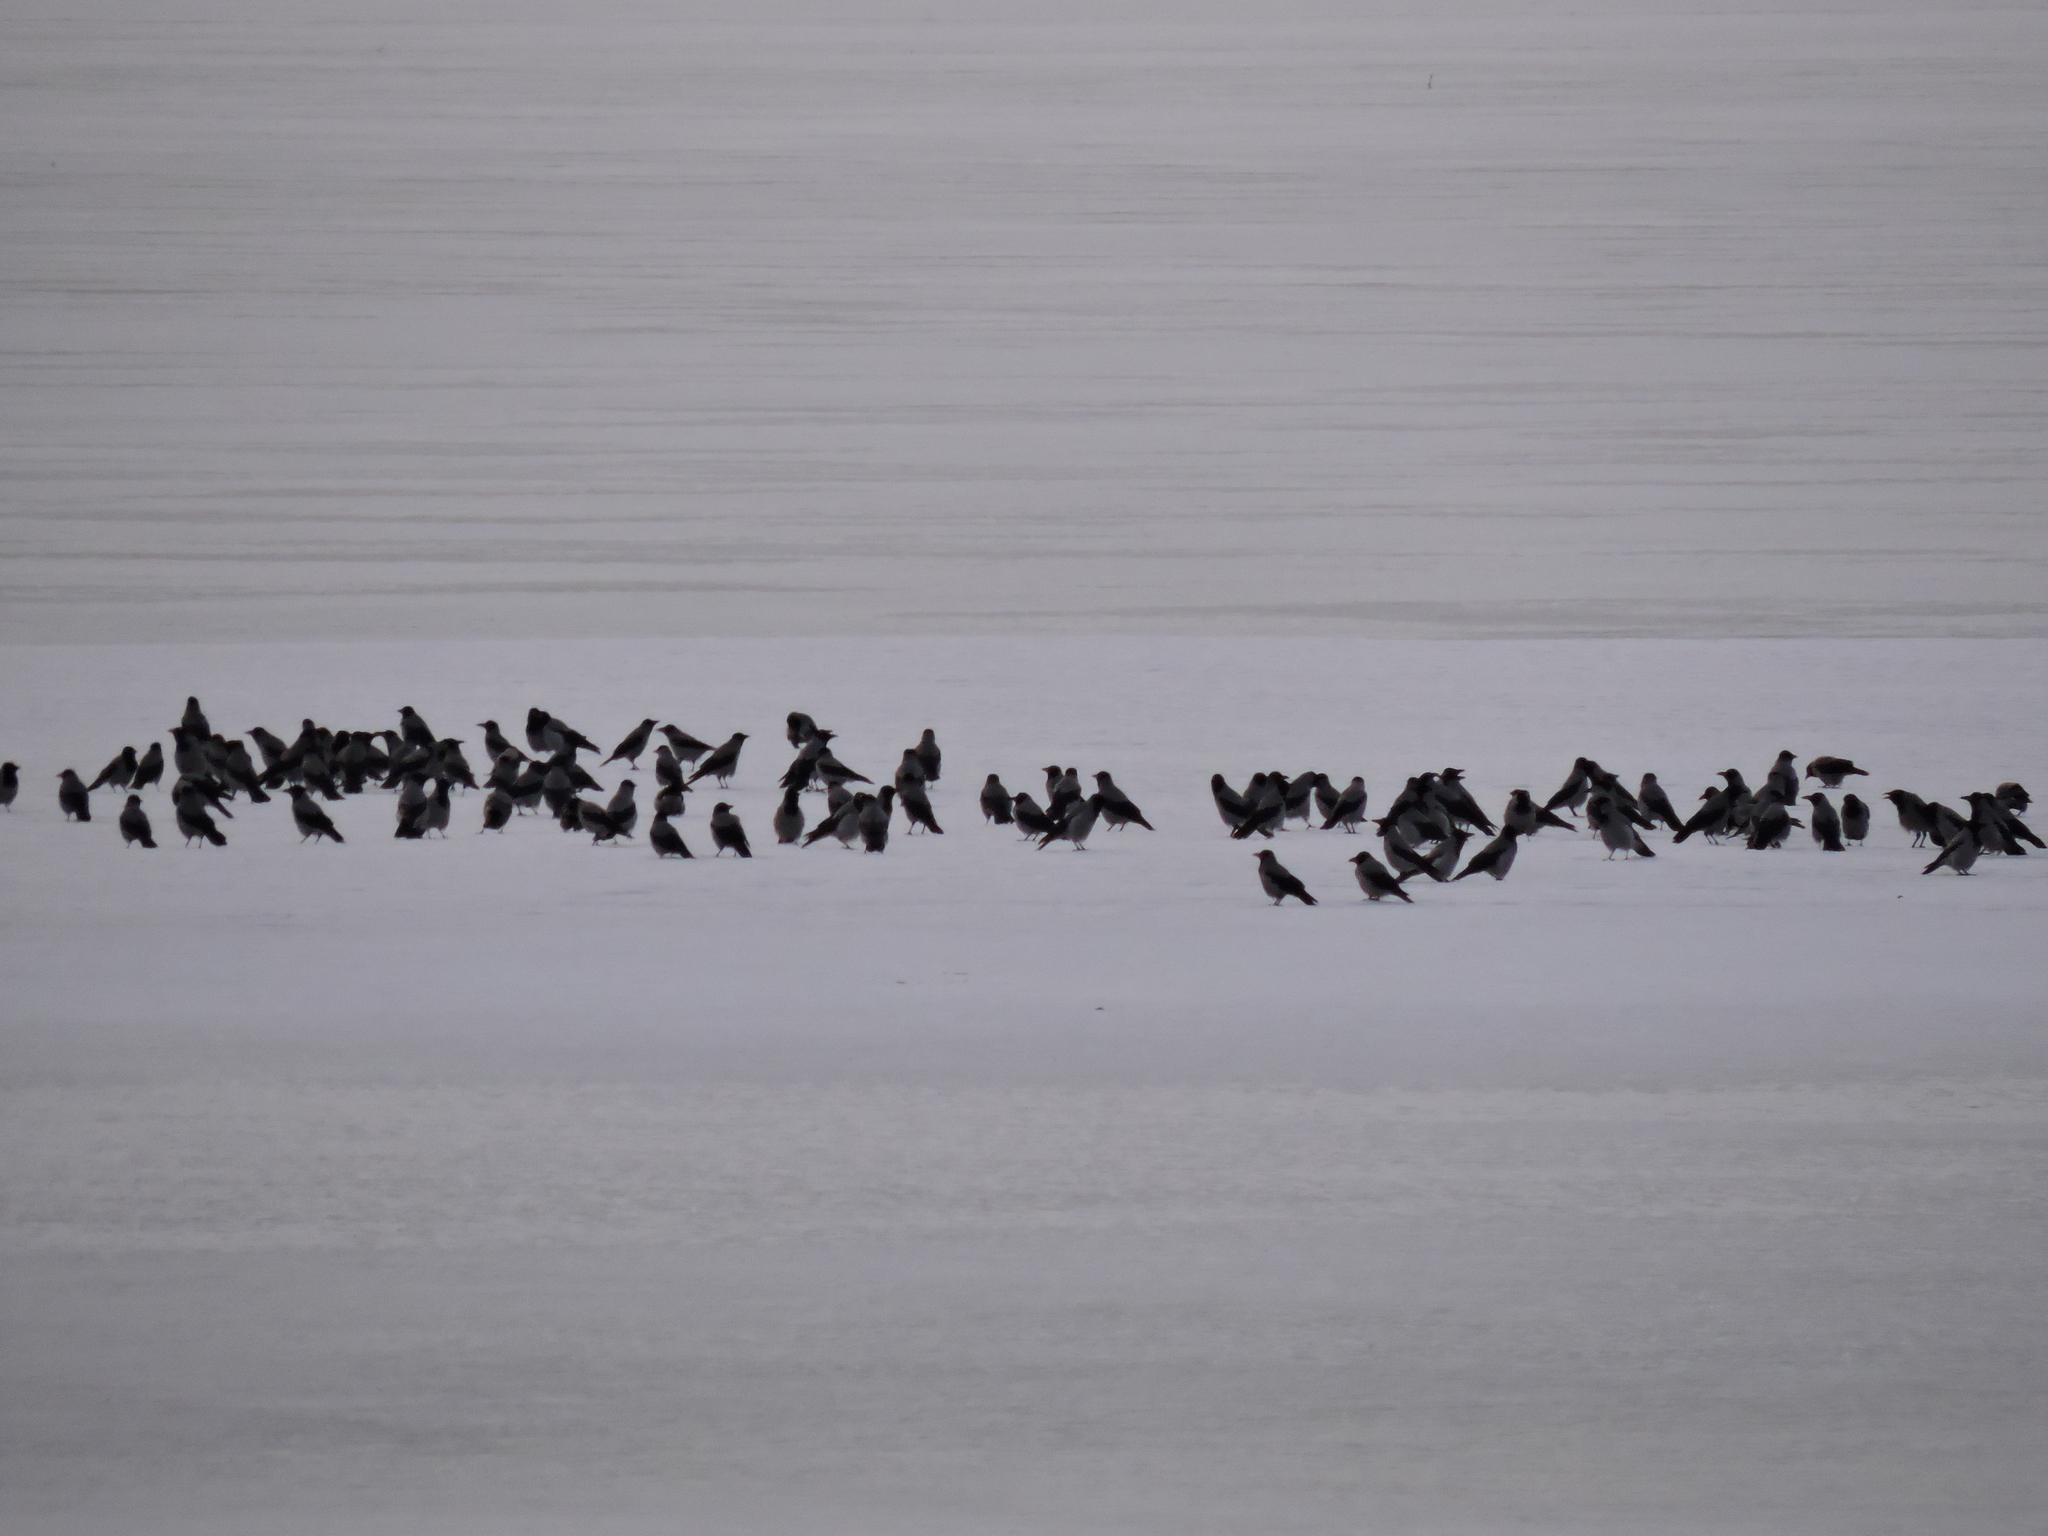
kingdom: Animalia
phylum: Chordata
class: Aves
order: Passeriformes
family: Corvidae
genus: Corvus
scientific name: Corvus cornix
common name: Hooded crow
